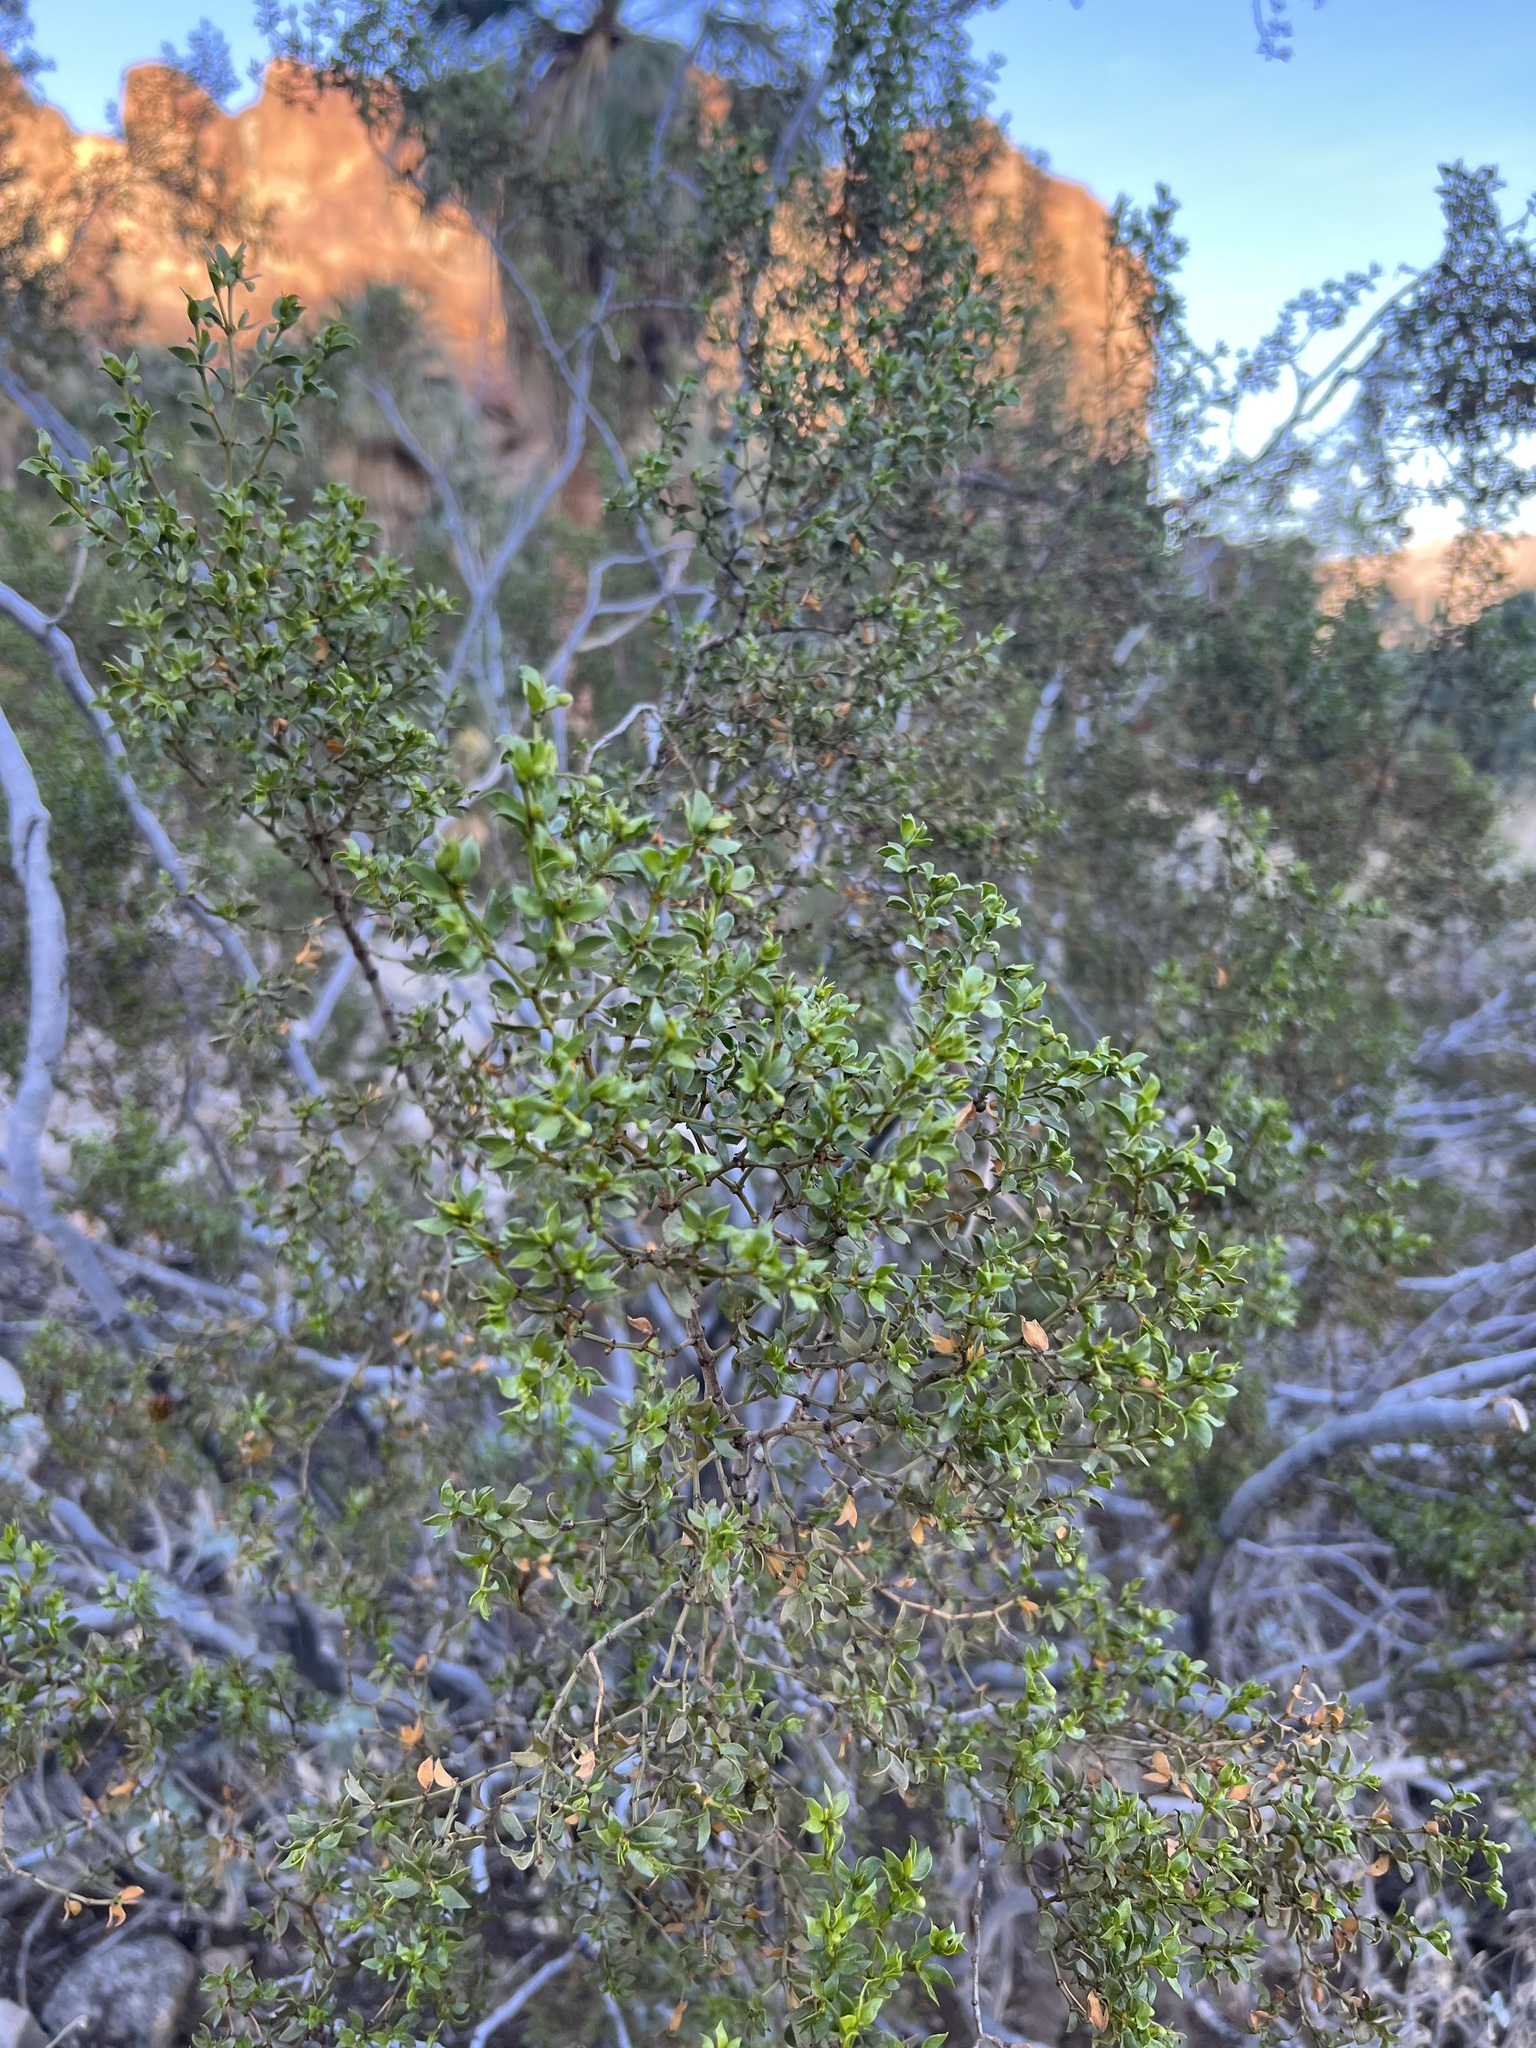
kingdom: Plantae
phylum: Tracheophyta
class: Magnoliopsida
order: Zygophyllales
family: Zygophyllaceae
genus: Larrea
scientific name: Larrea tridentata
